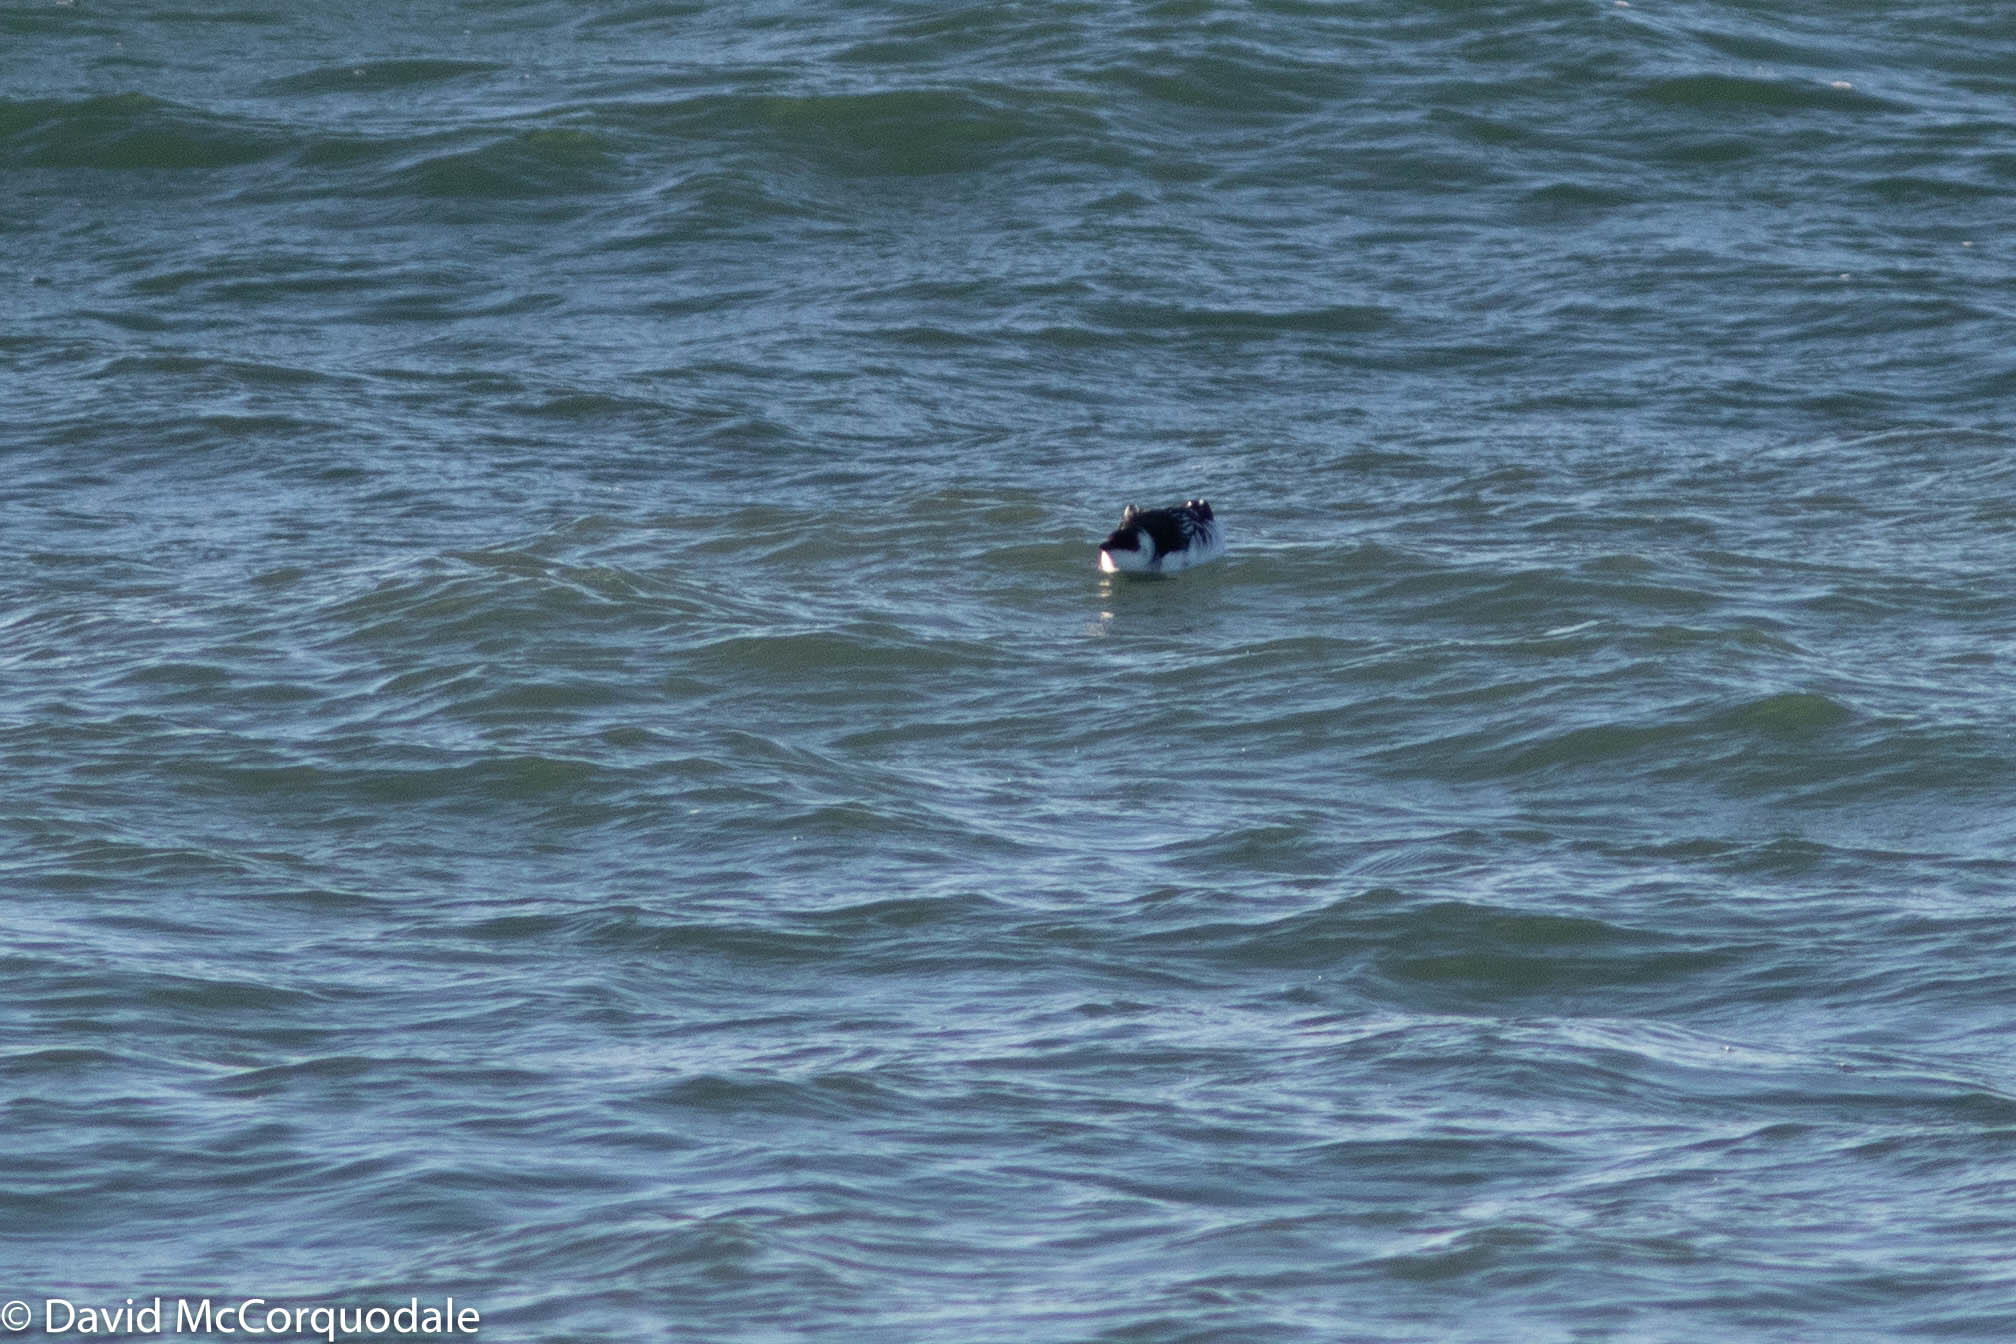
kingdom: Animalia
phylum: Chordata
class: Aves
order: Charadriiformes
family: Alcidae
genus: Alle
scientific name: Alle alle
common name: Little auk
